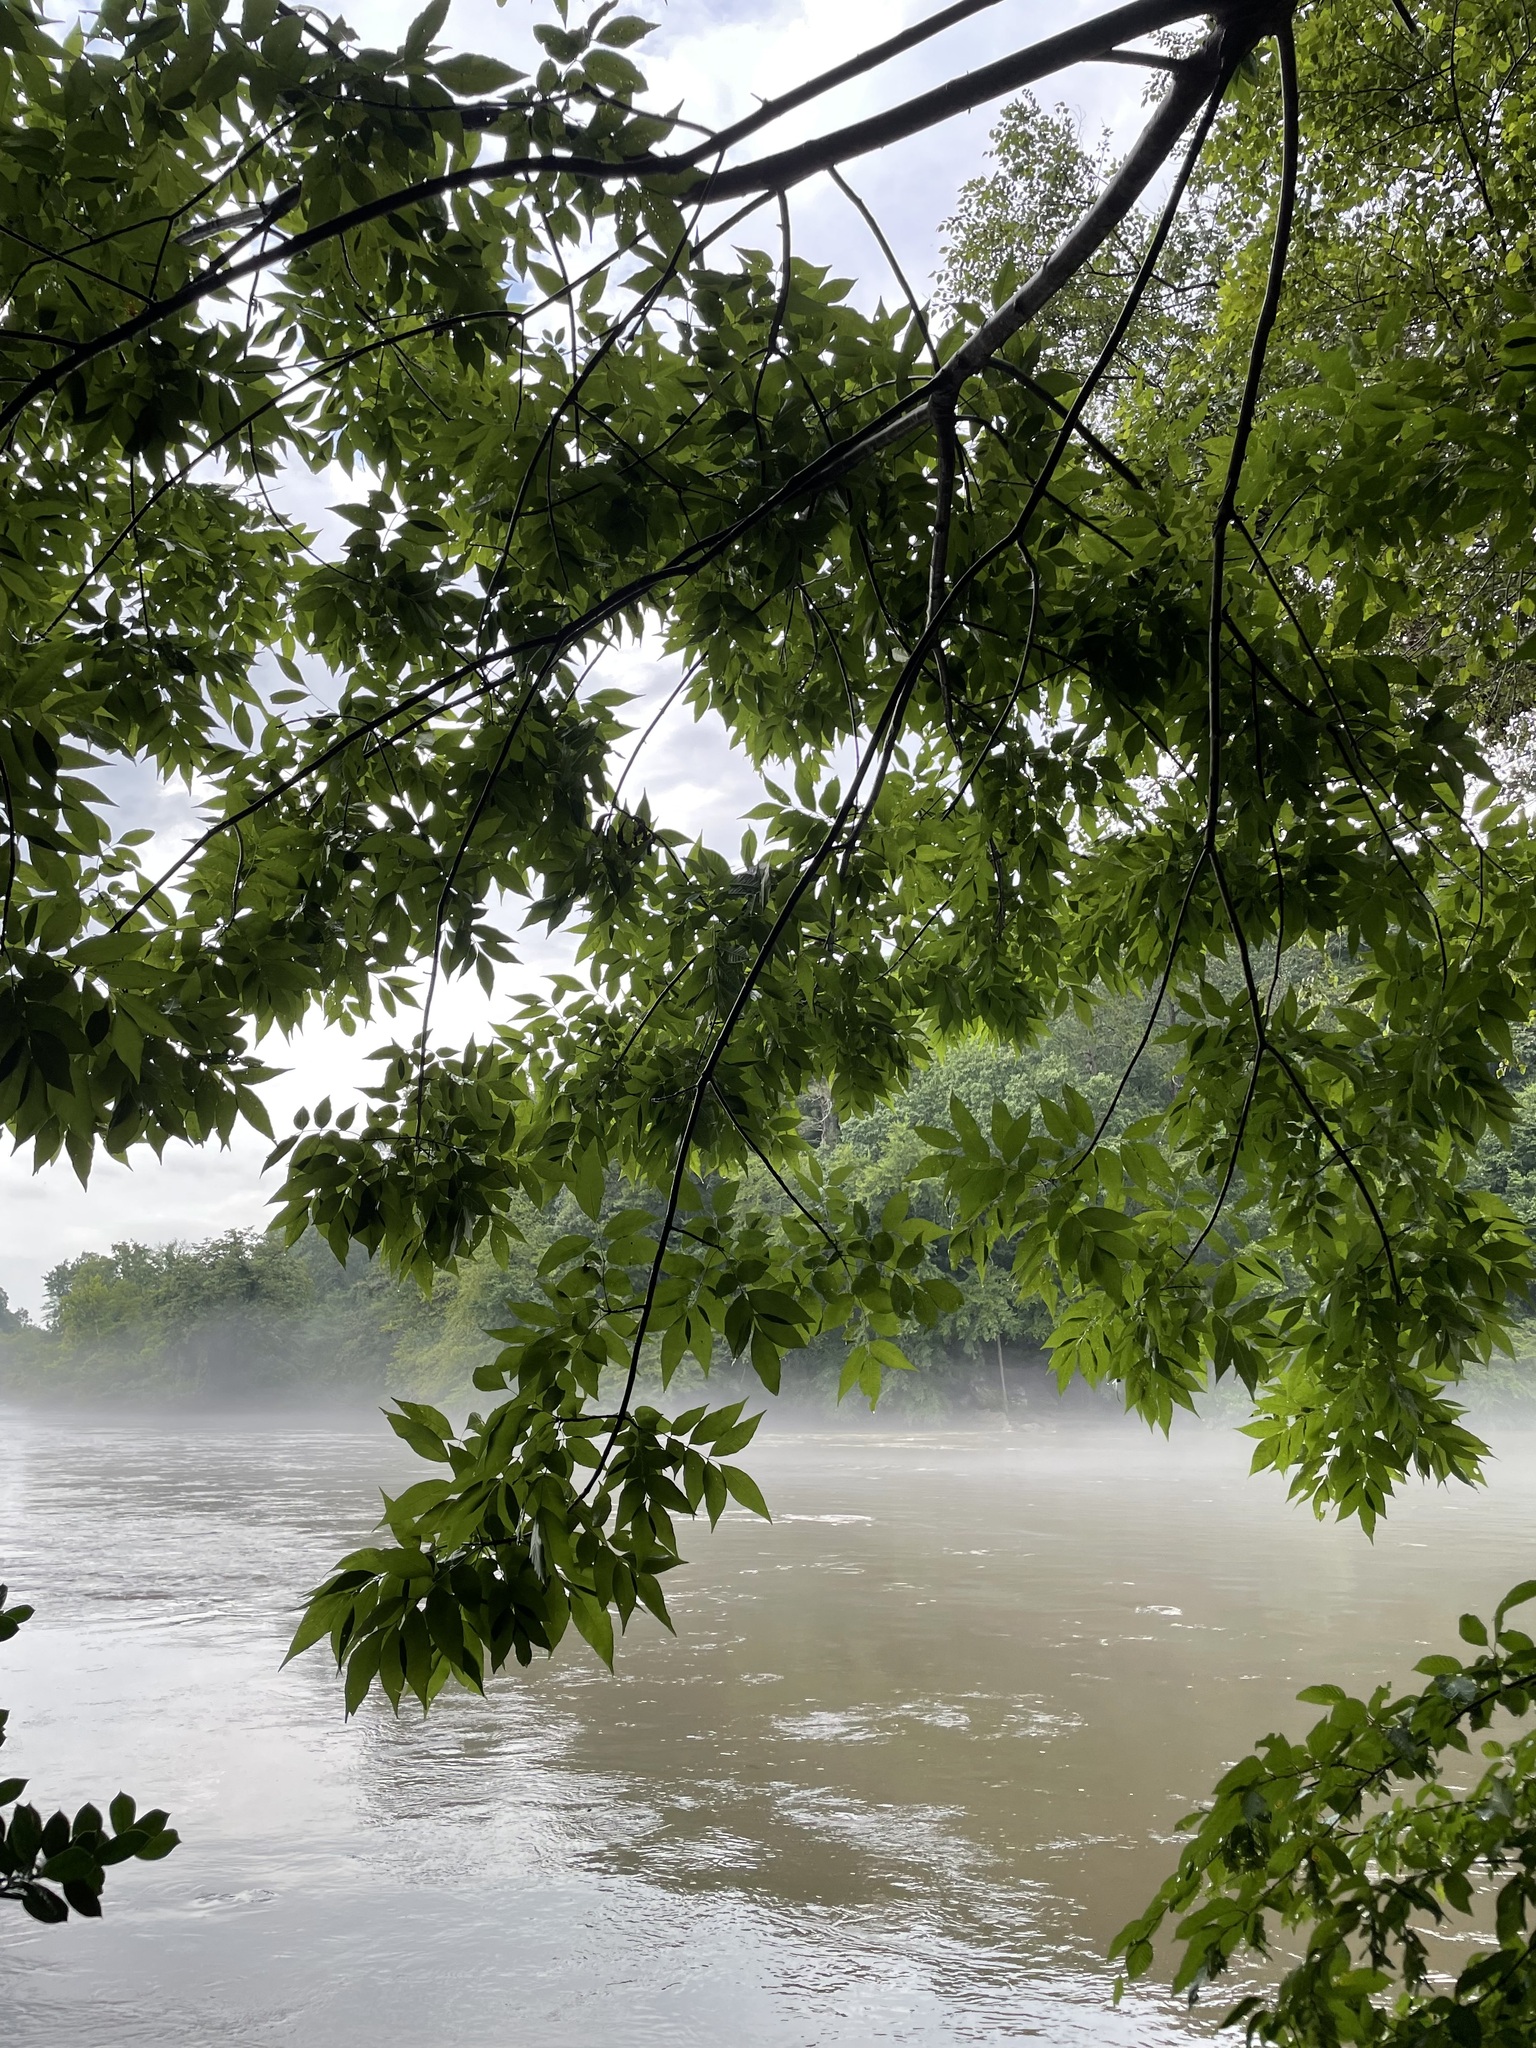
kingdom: Plantae
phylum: Tracheophyta
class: Magnoliopsida
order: Lamiales
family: Oleaceae
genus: Fraxinus
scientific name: Fraxinus pennsylvanica
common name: Green ash
